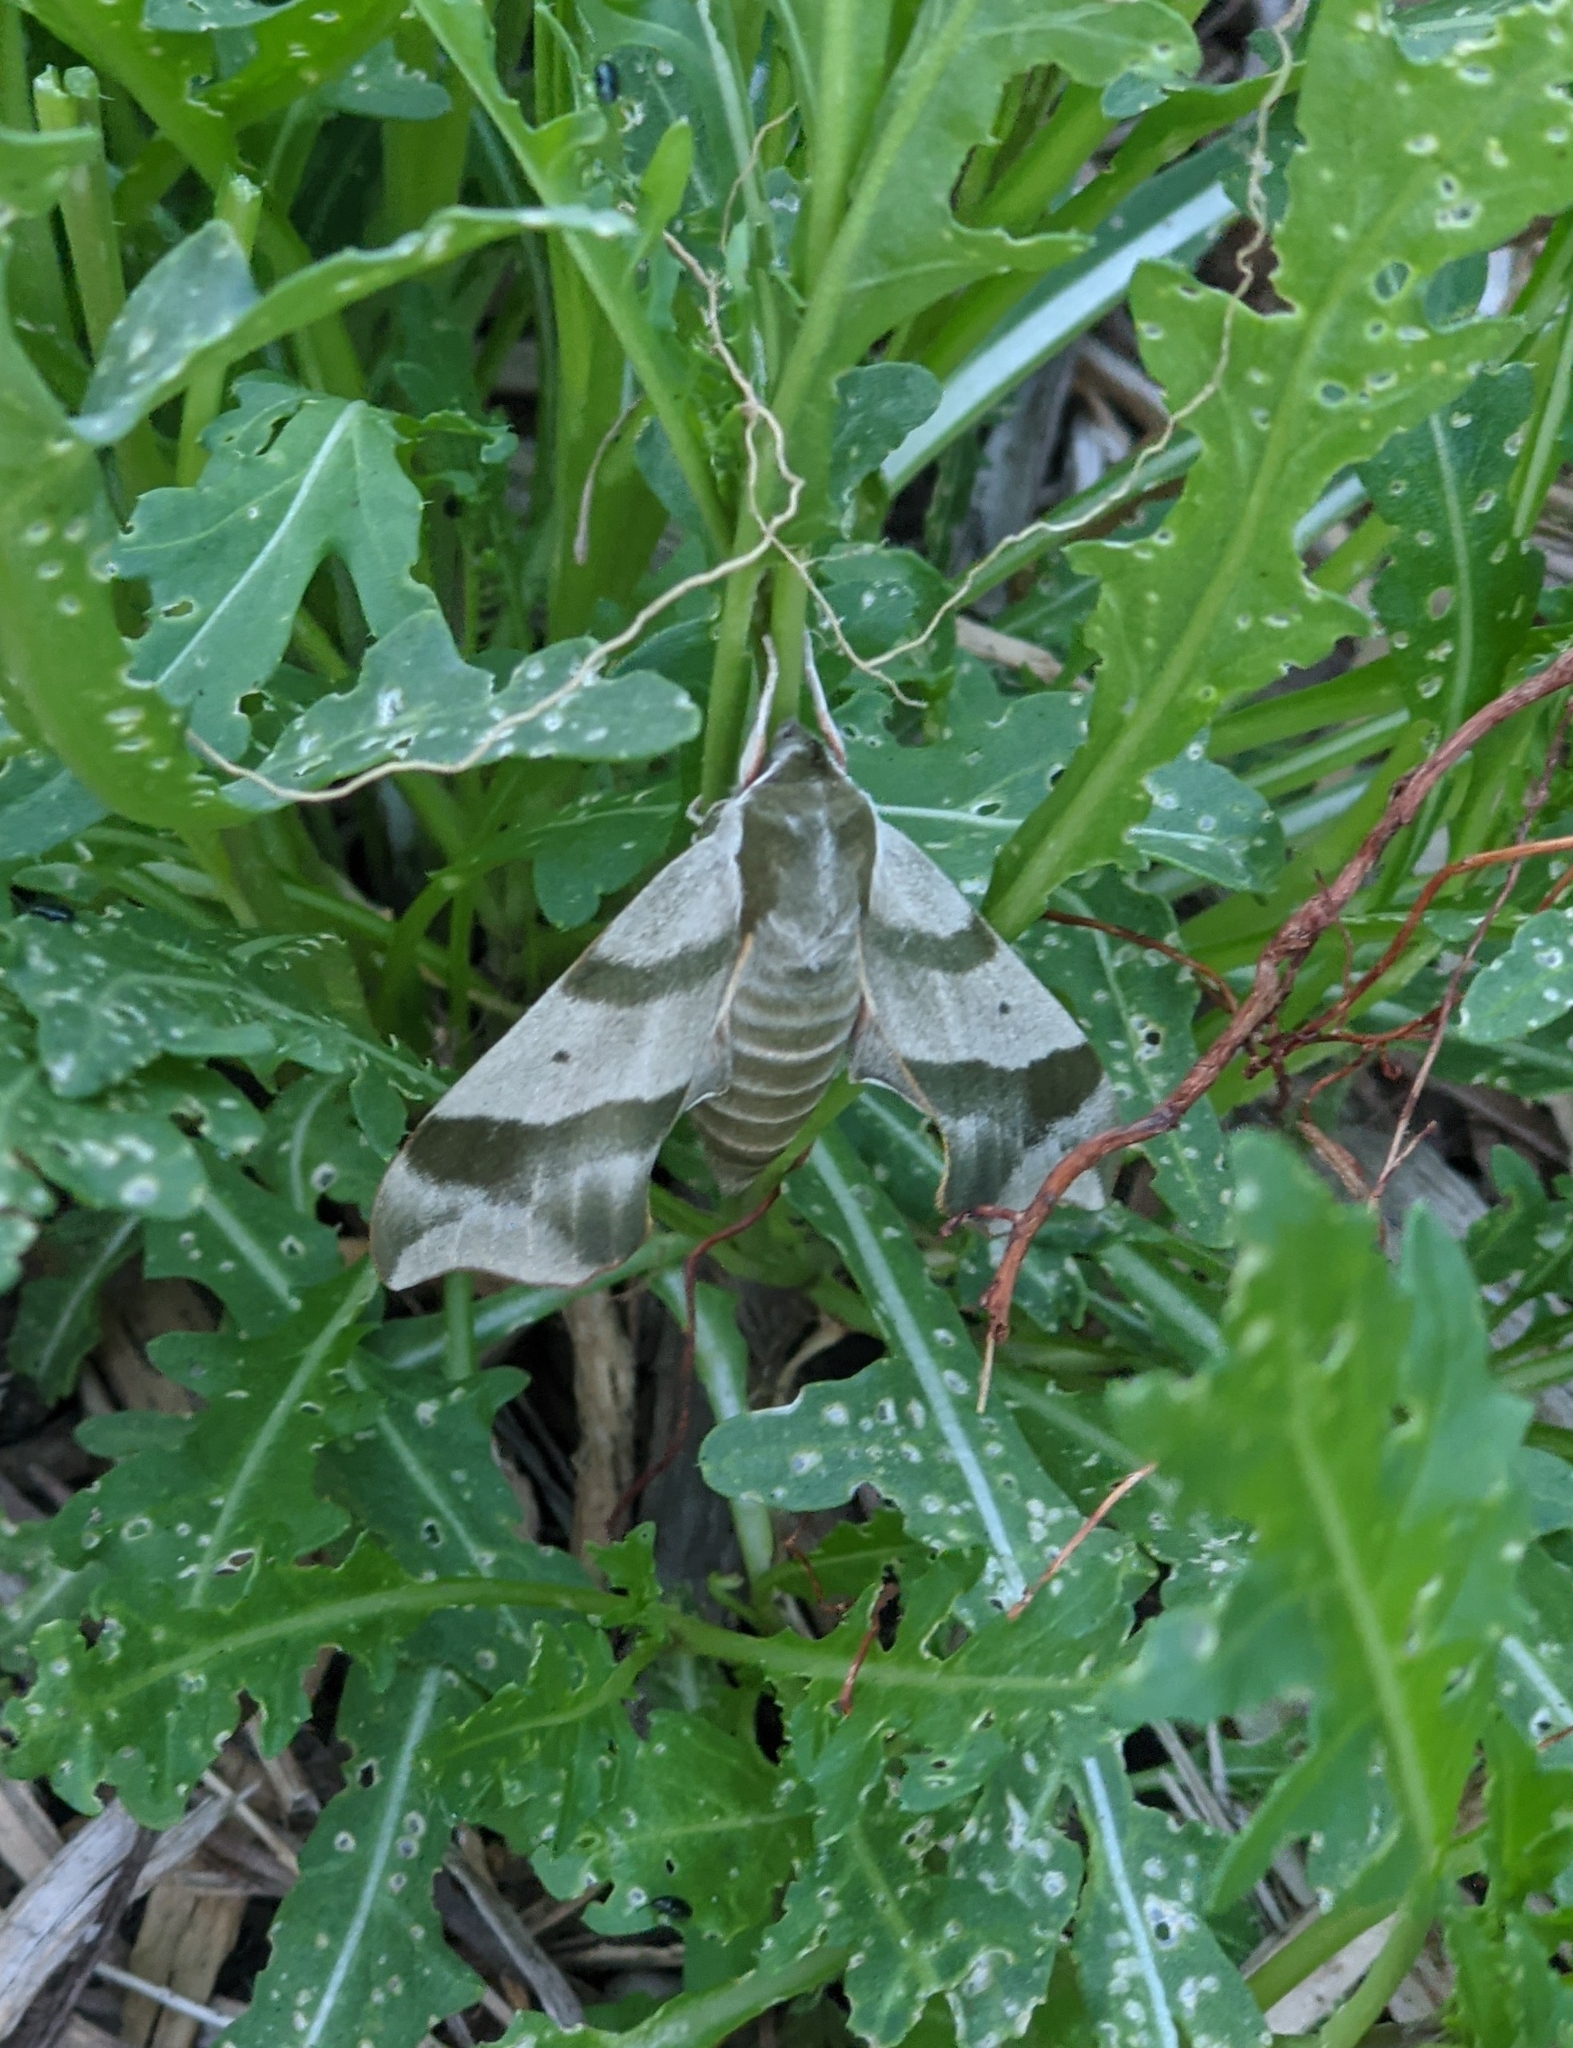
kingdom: Animalia
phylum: Arthropoda
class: Insecta
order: Lepidoptera
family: Sphingidae
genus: Darapsa
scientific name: Darapsa myron
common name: Hog sphinx
